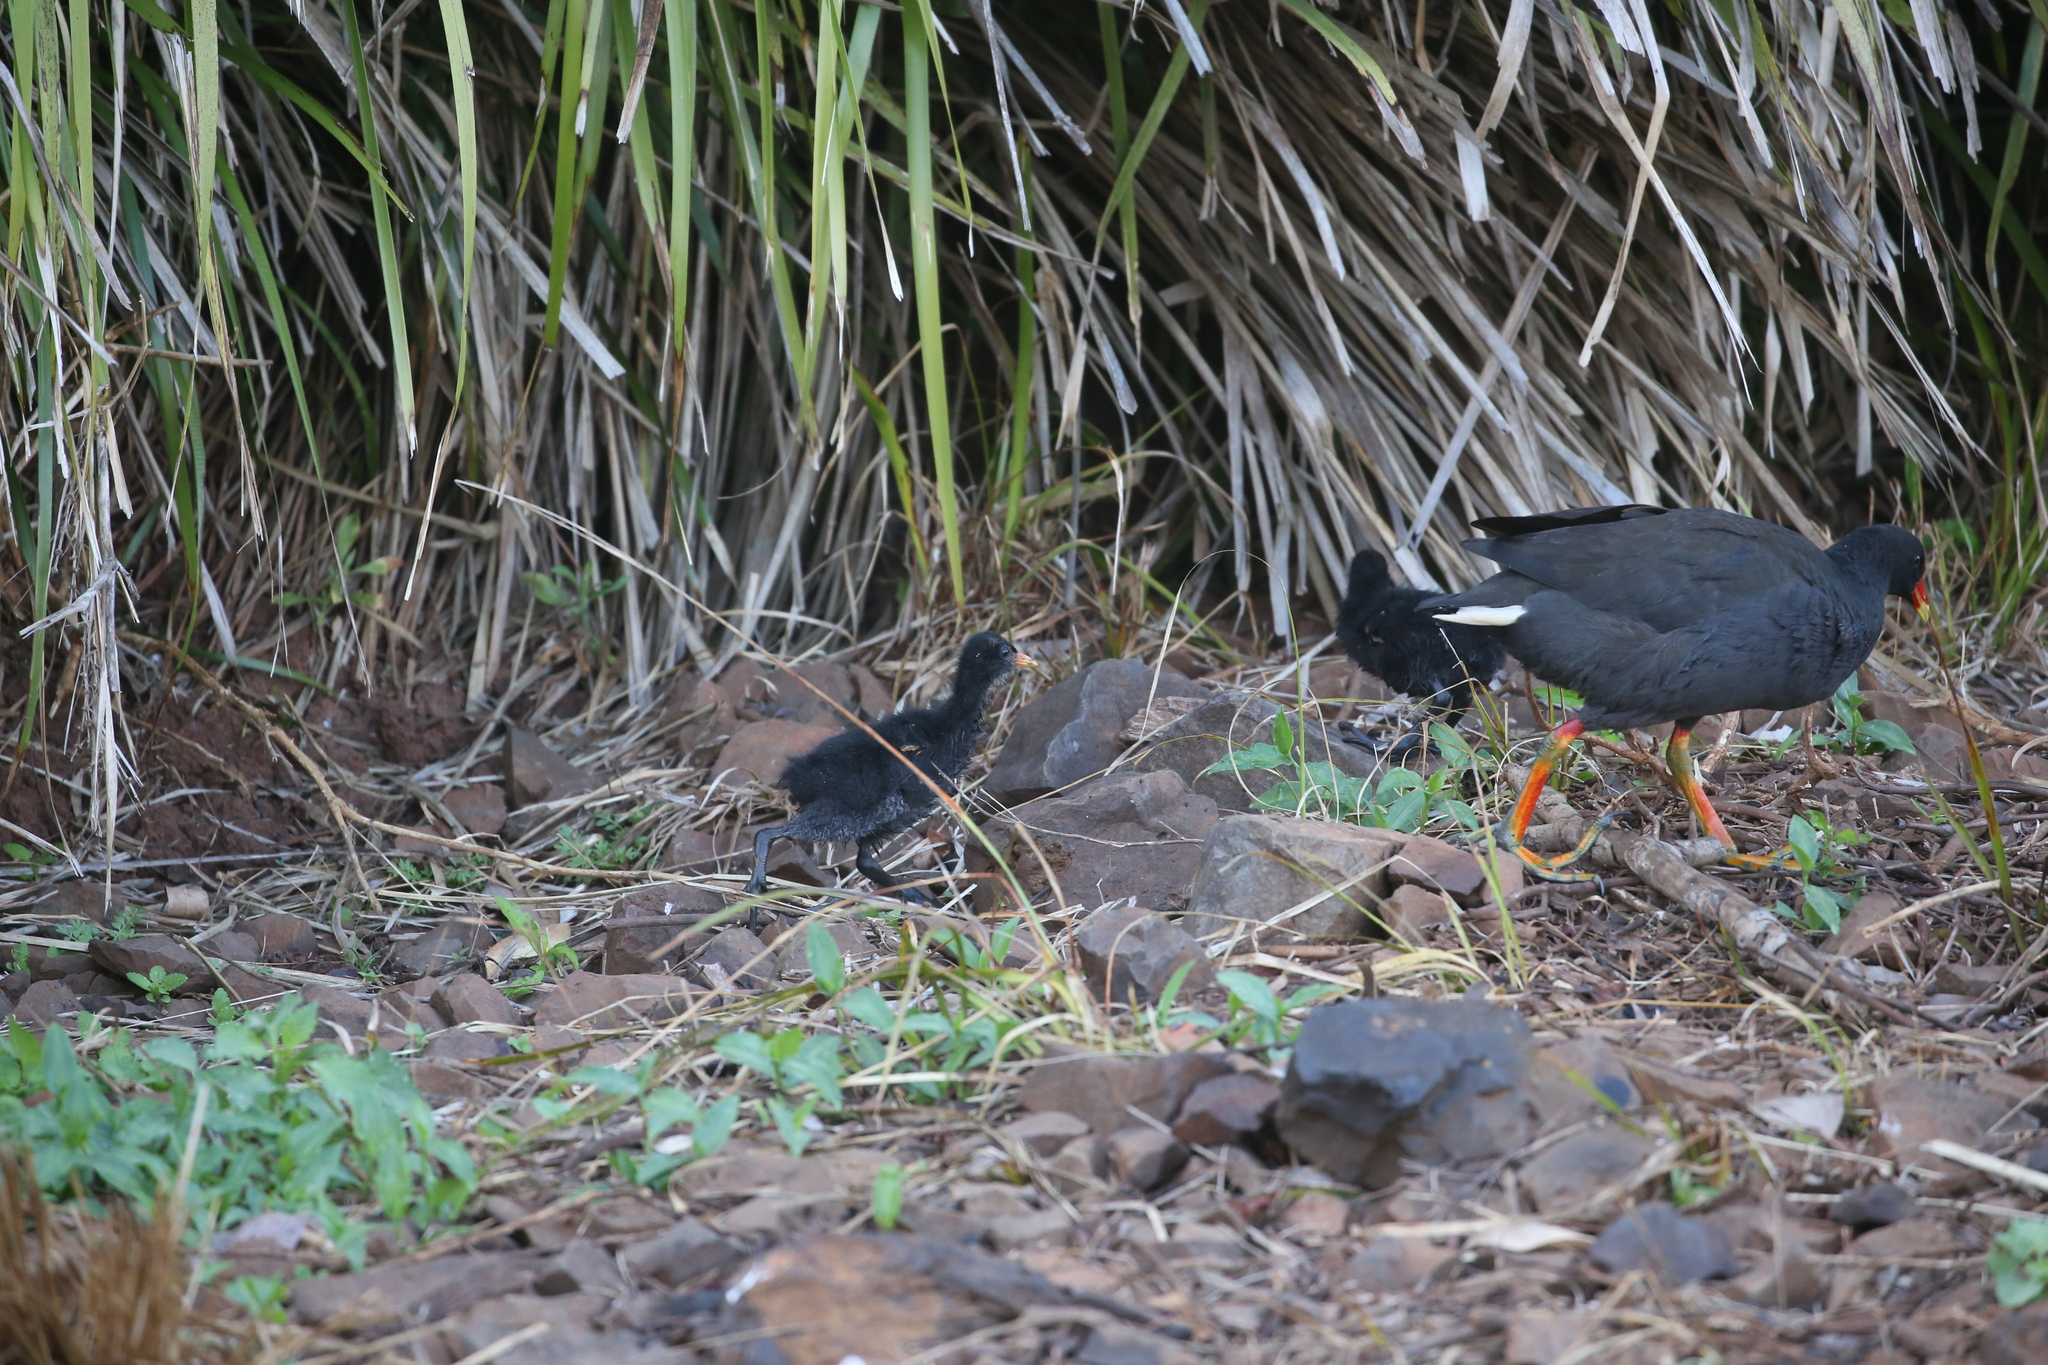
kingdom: Animalia
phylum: Chordata
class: Aves
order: Gruiformes
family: Rallidae
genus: Gallinula
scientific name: Gallinula tenebrosa
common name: Dusky moorhen
